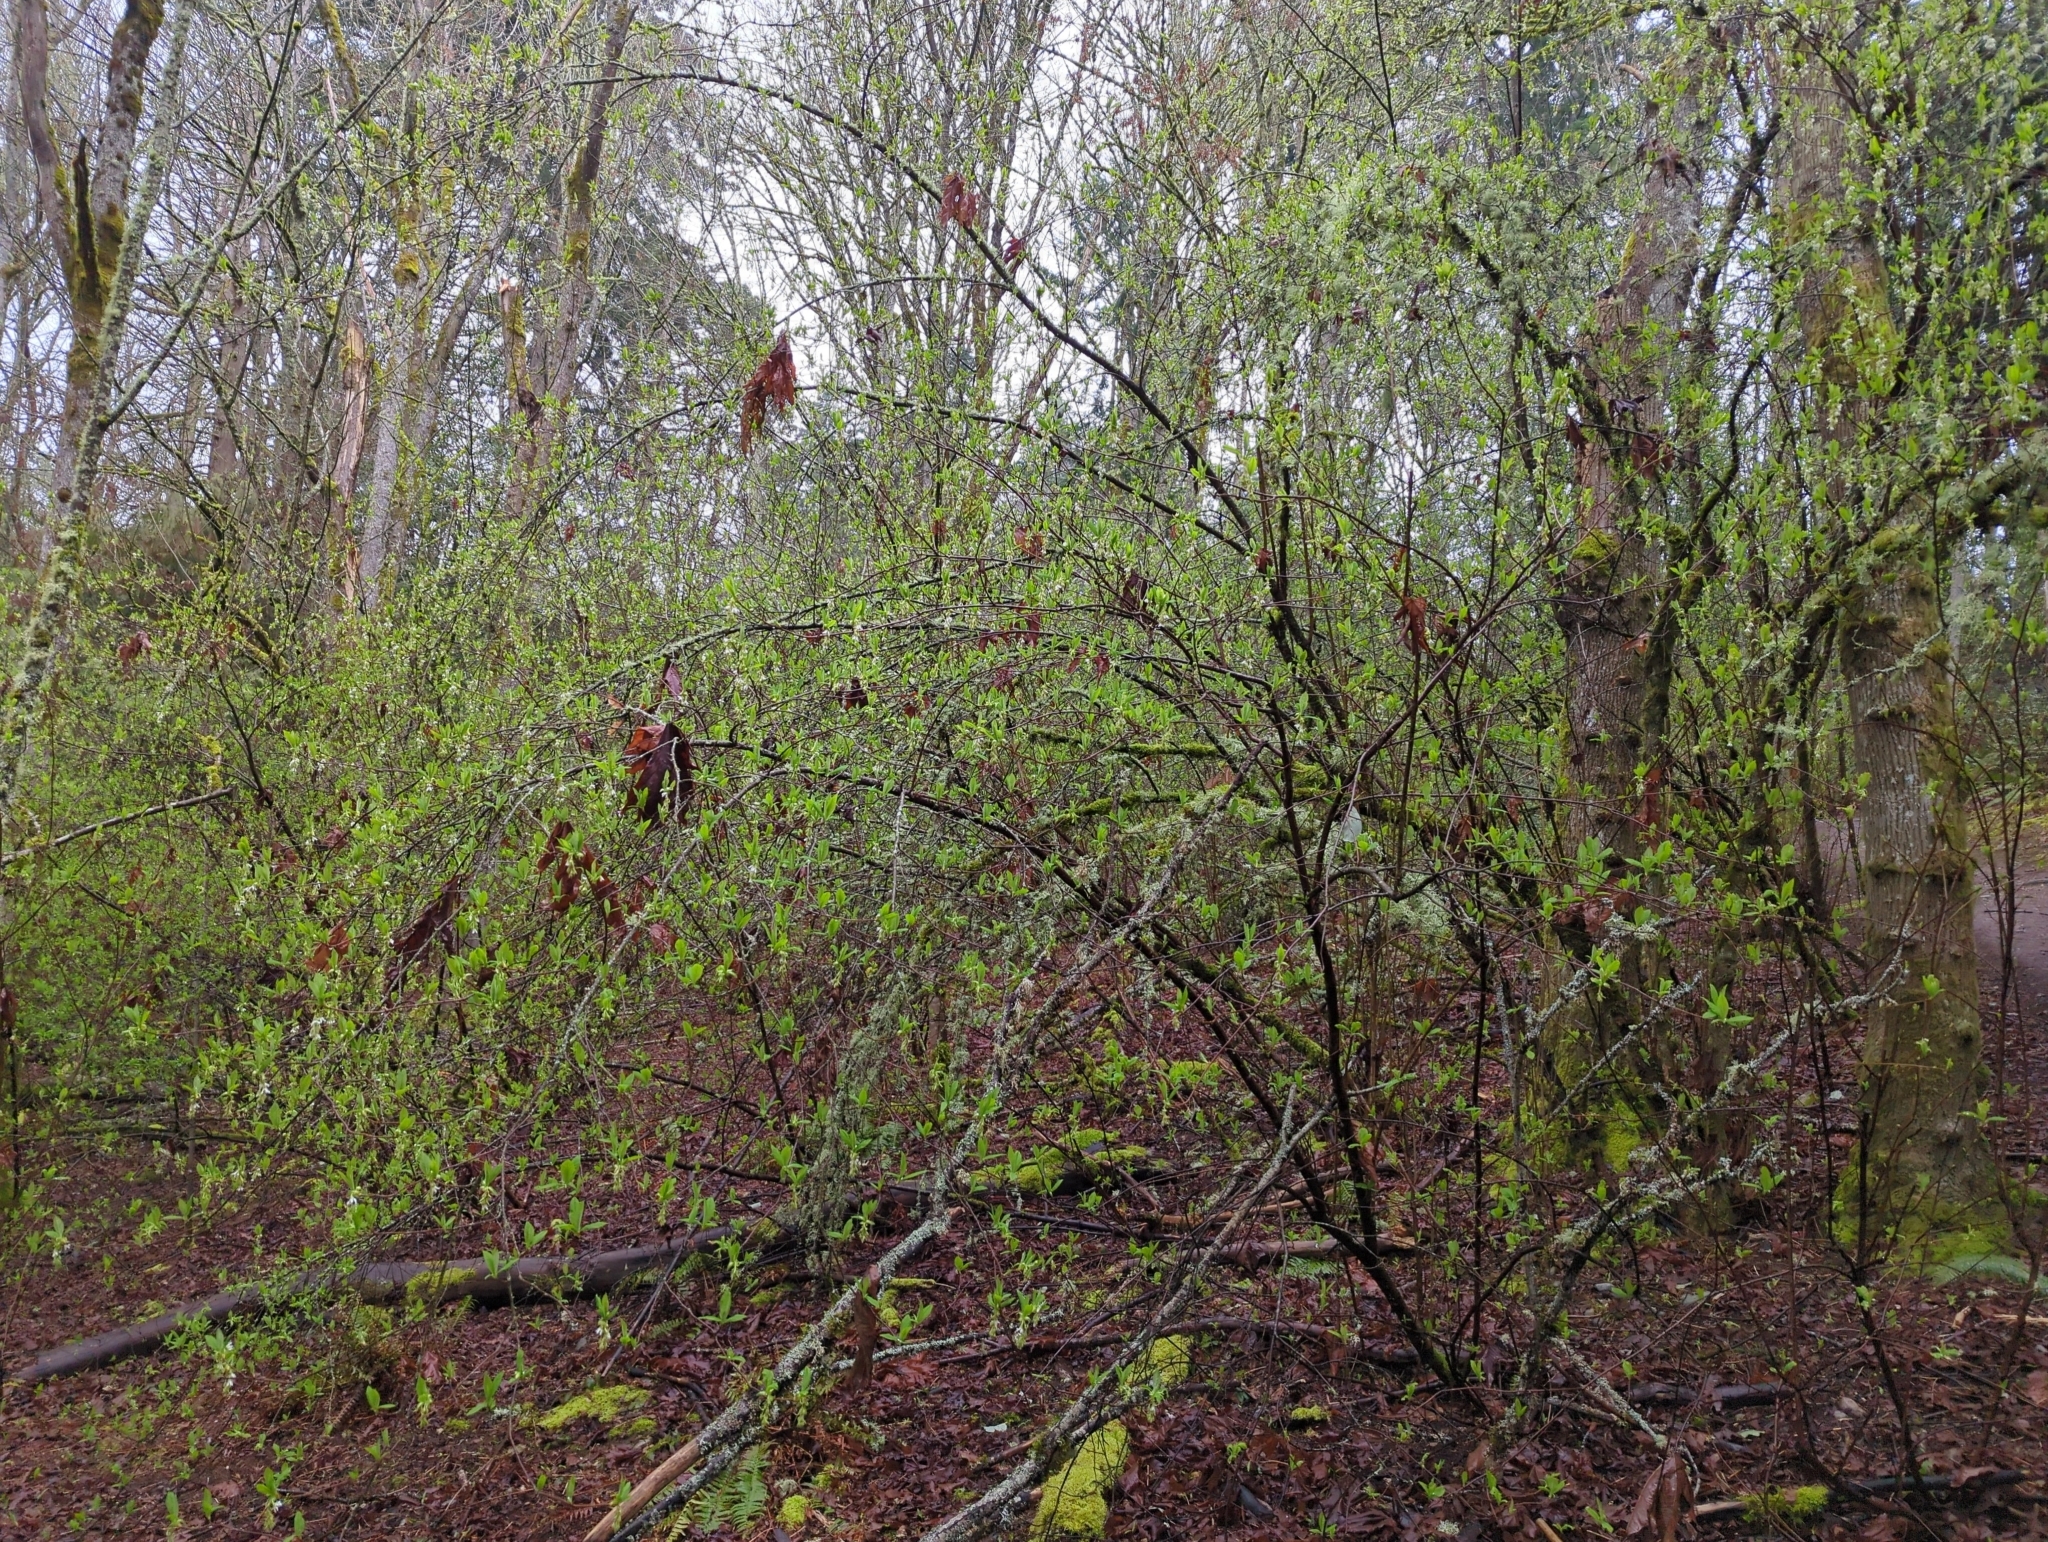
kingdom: Plantae
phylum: Tracheophyta
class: Magnoliopsida
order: Rosales
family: Rosaceae
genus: Oemleria
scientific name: Oemleria cerasiformis
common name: Osoberry
